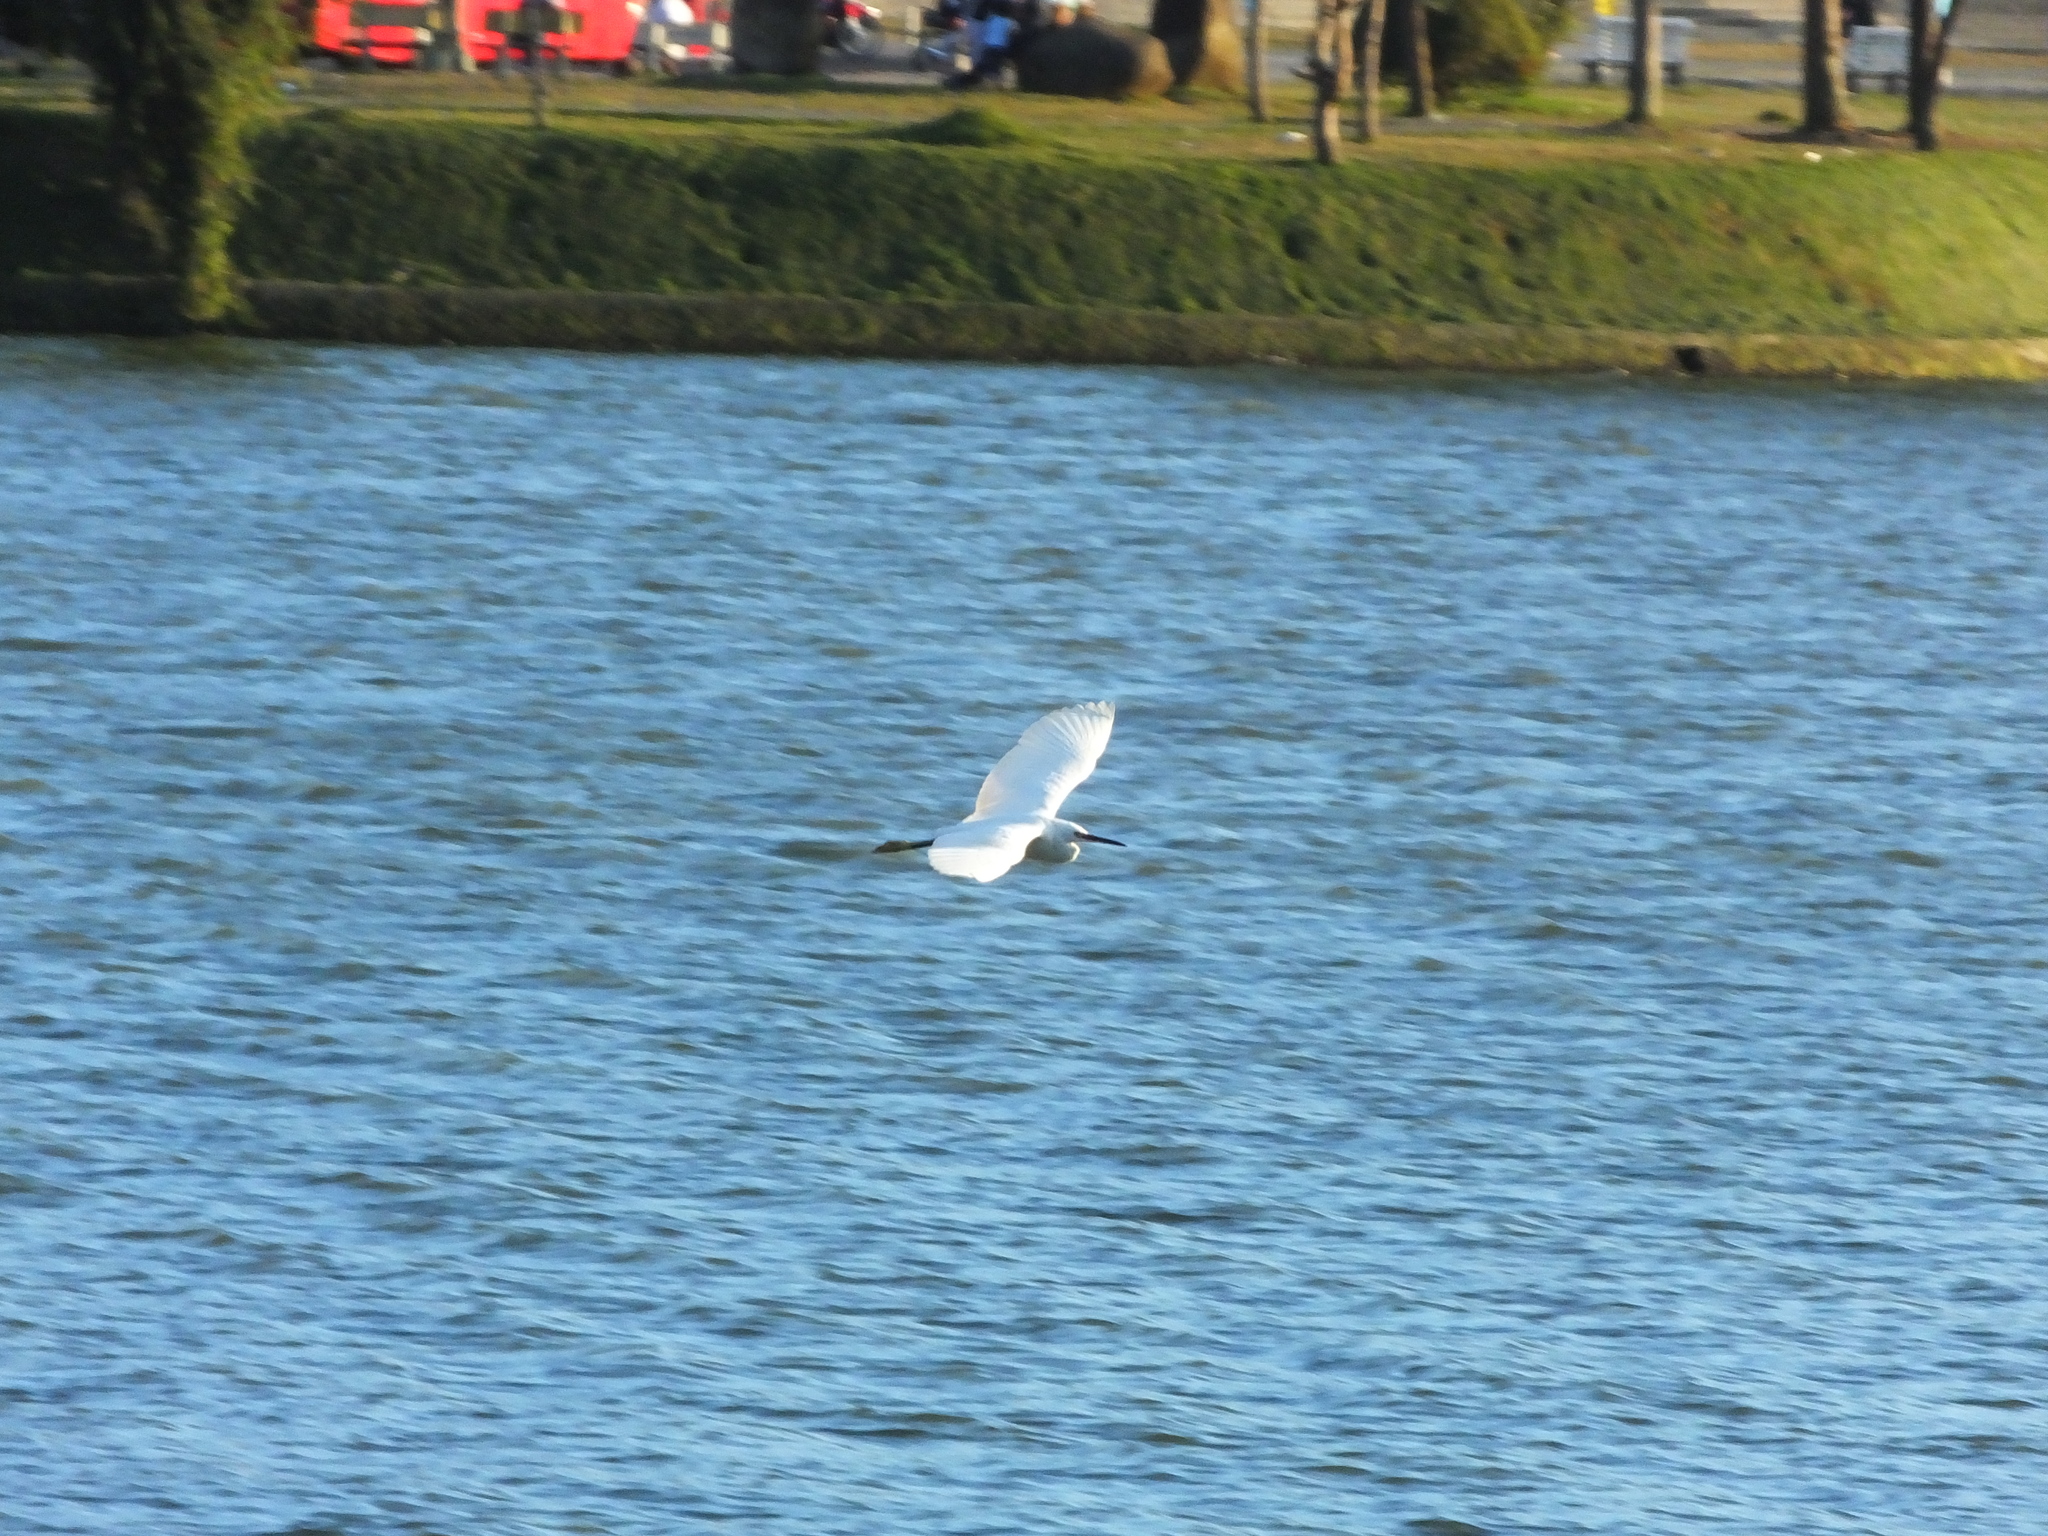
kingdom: Animalia
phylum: Chordata
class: Aves
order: Pelecaniformes
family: Ardeidae
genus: Egretta
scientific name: Egretta garzetta
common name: Little egret
